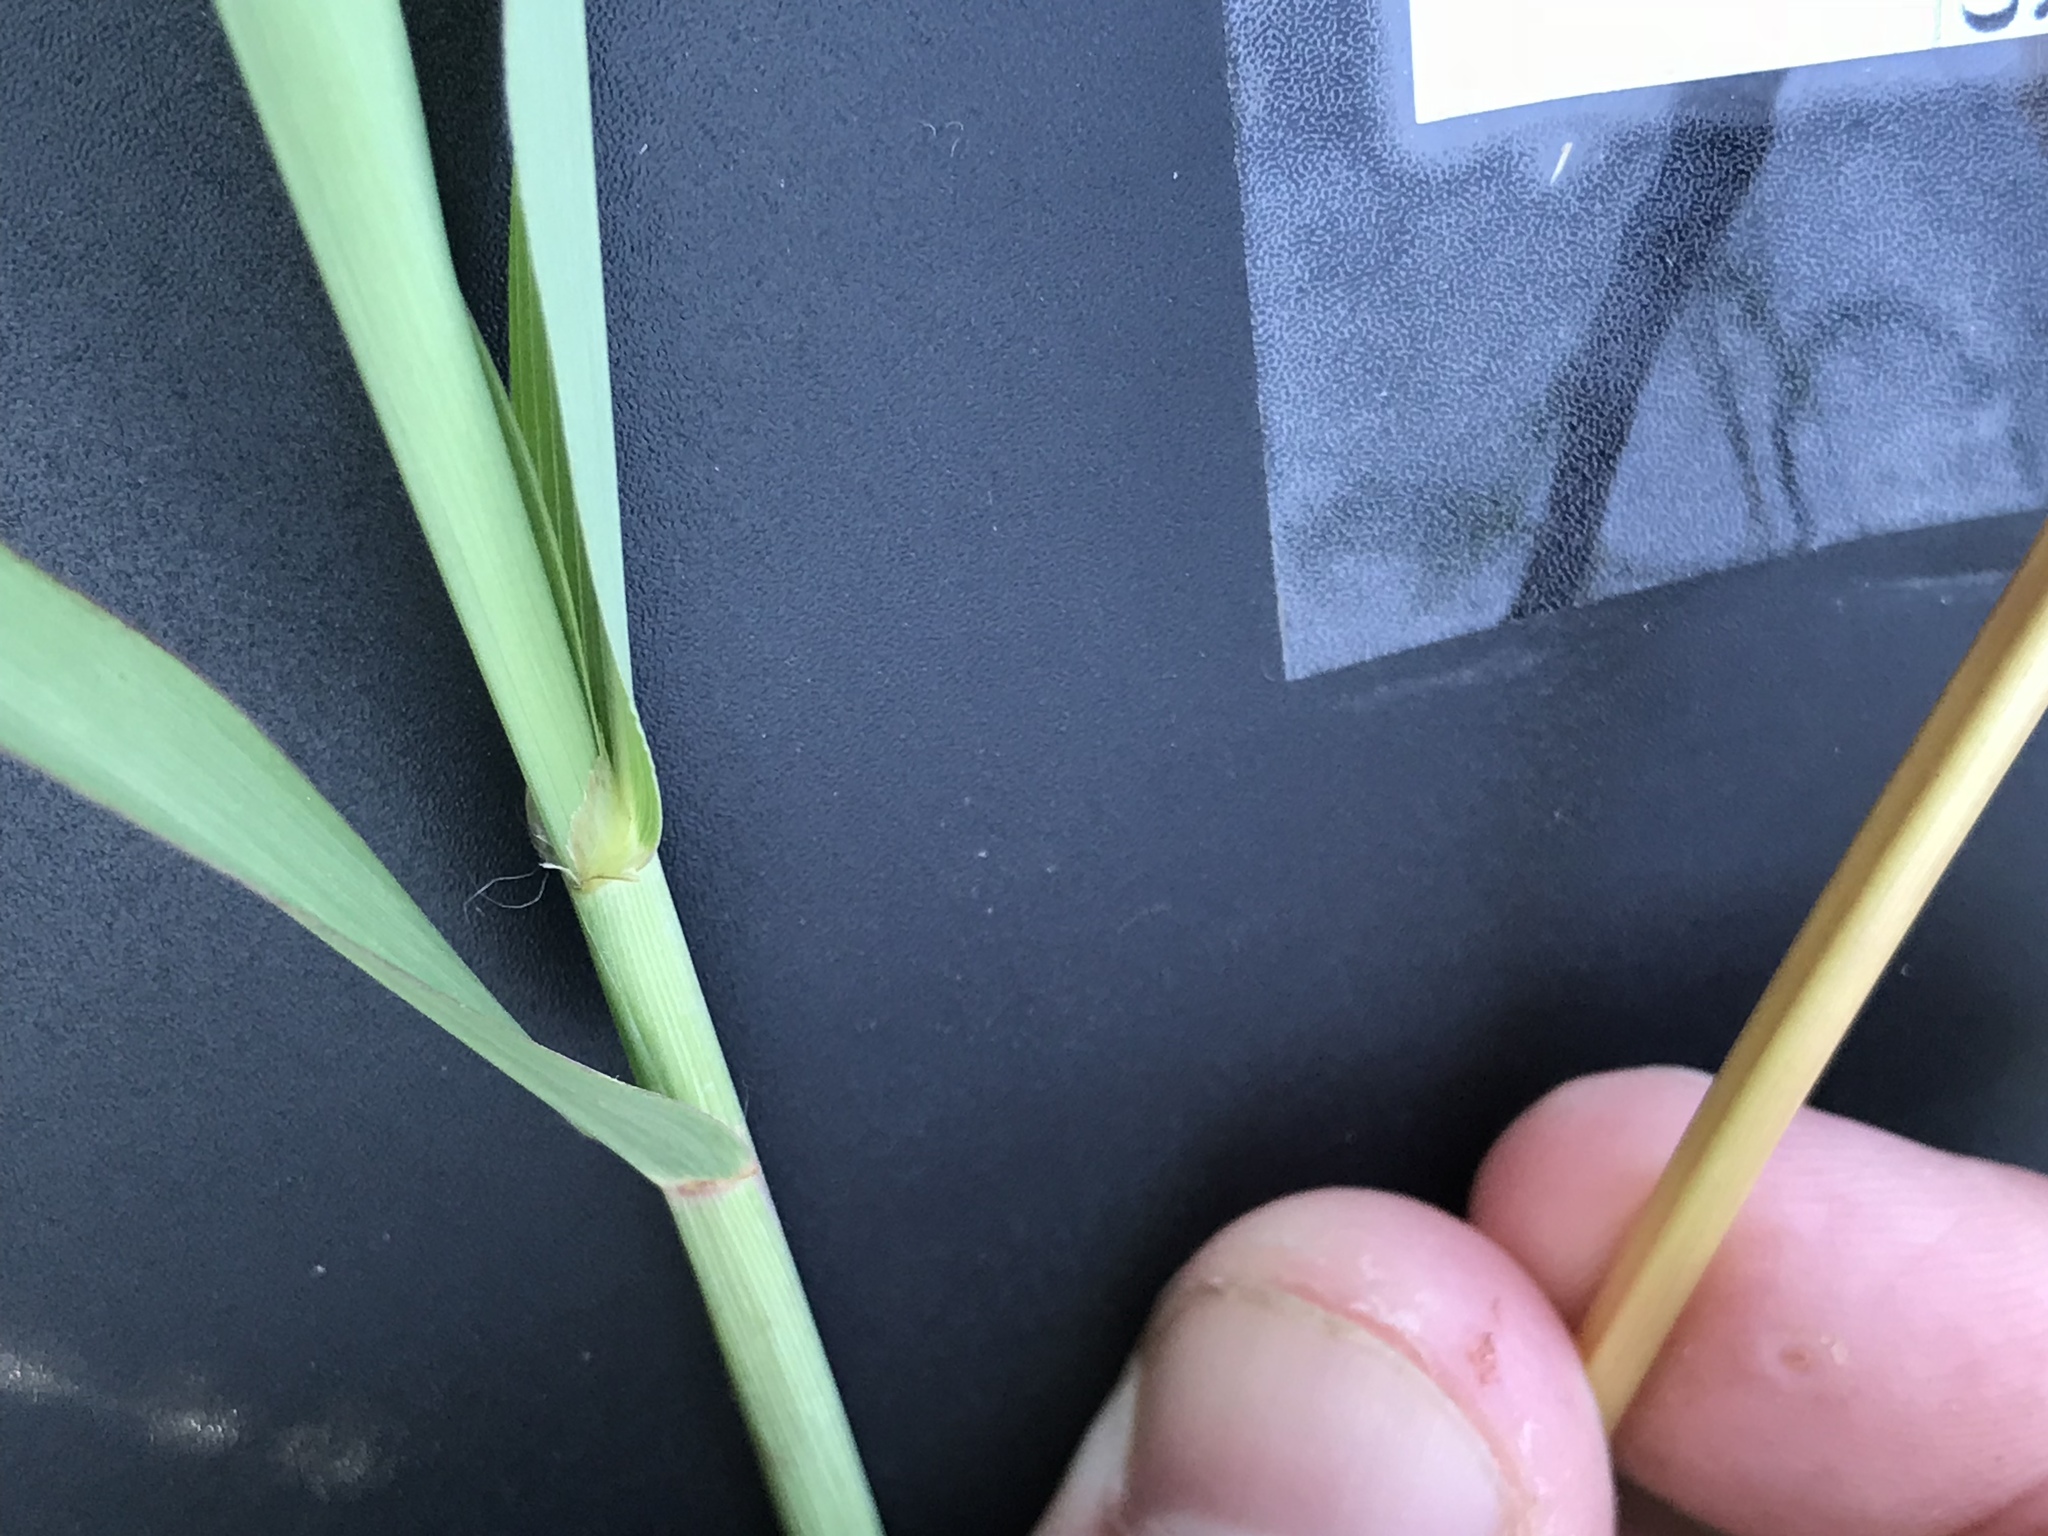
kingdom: Plantae
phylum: Tracheophyta
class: Liliopsida
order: Poales
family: Poaceae
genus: Bothriochloa
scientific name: Bothriochloa torreyana
